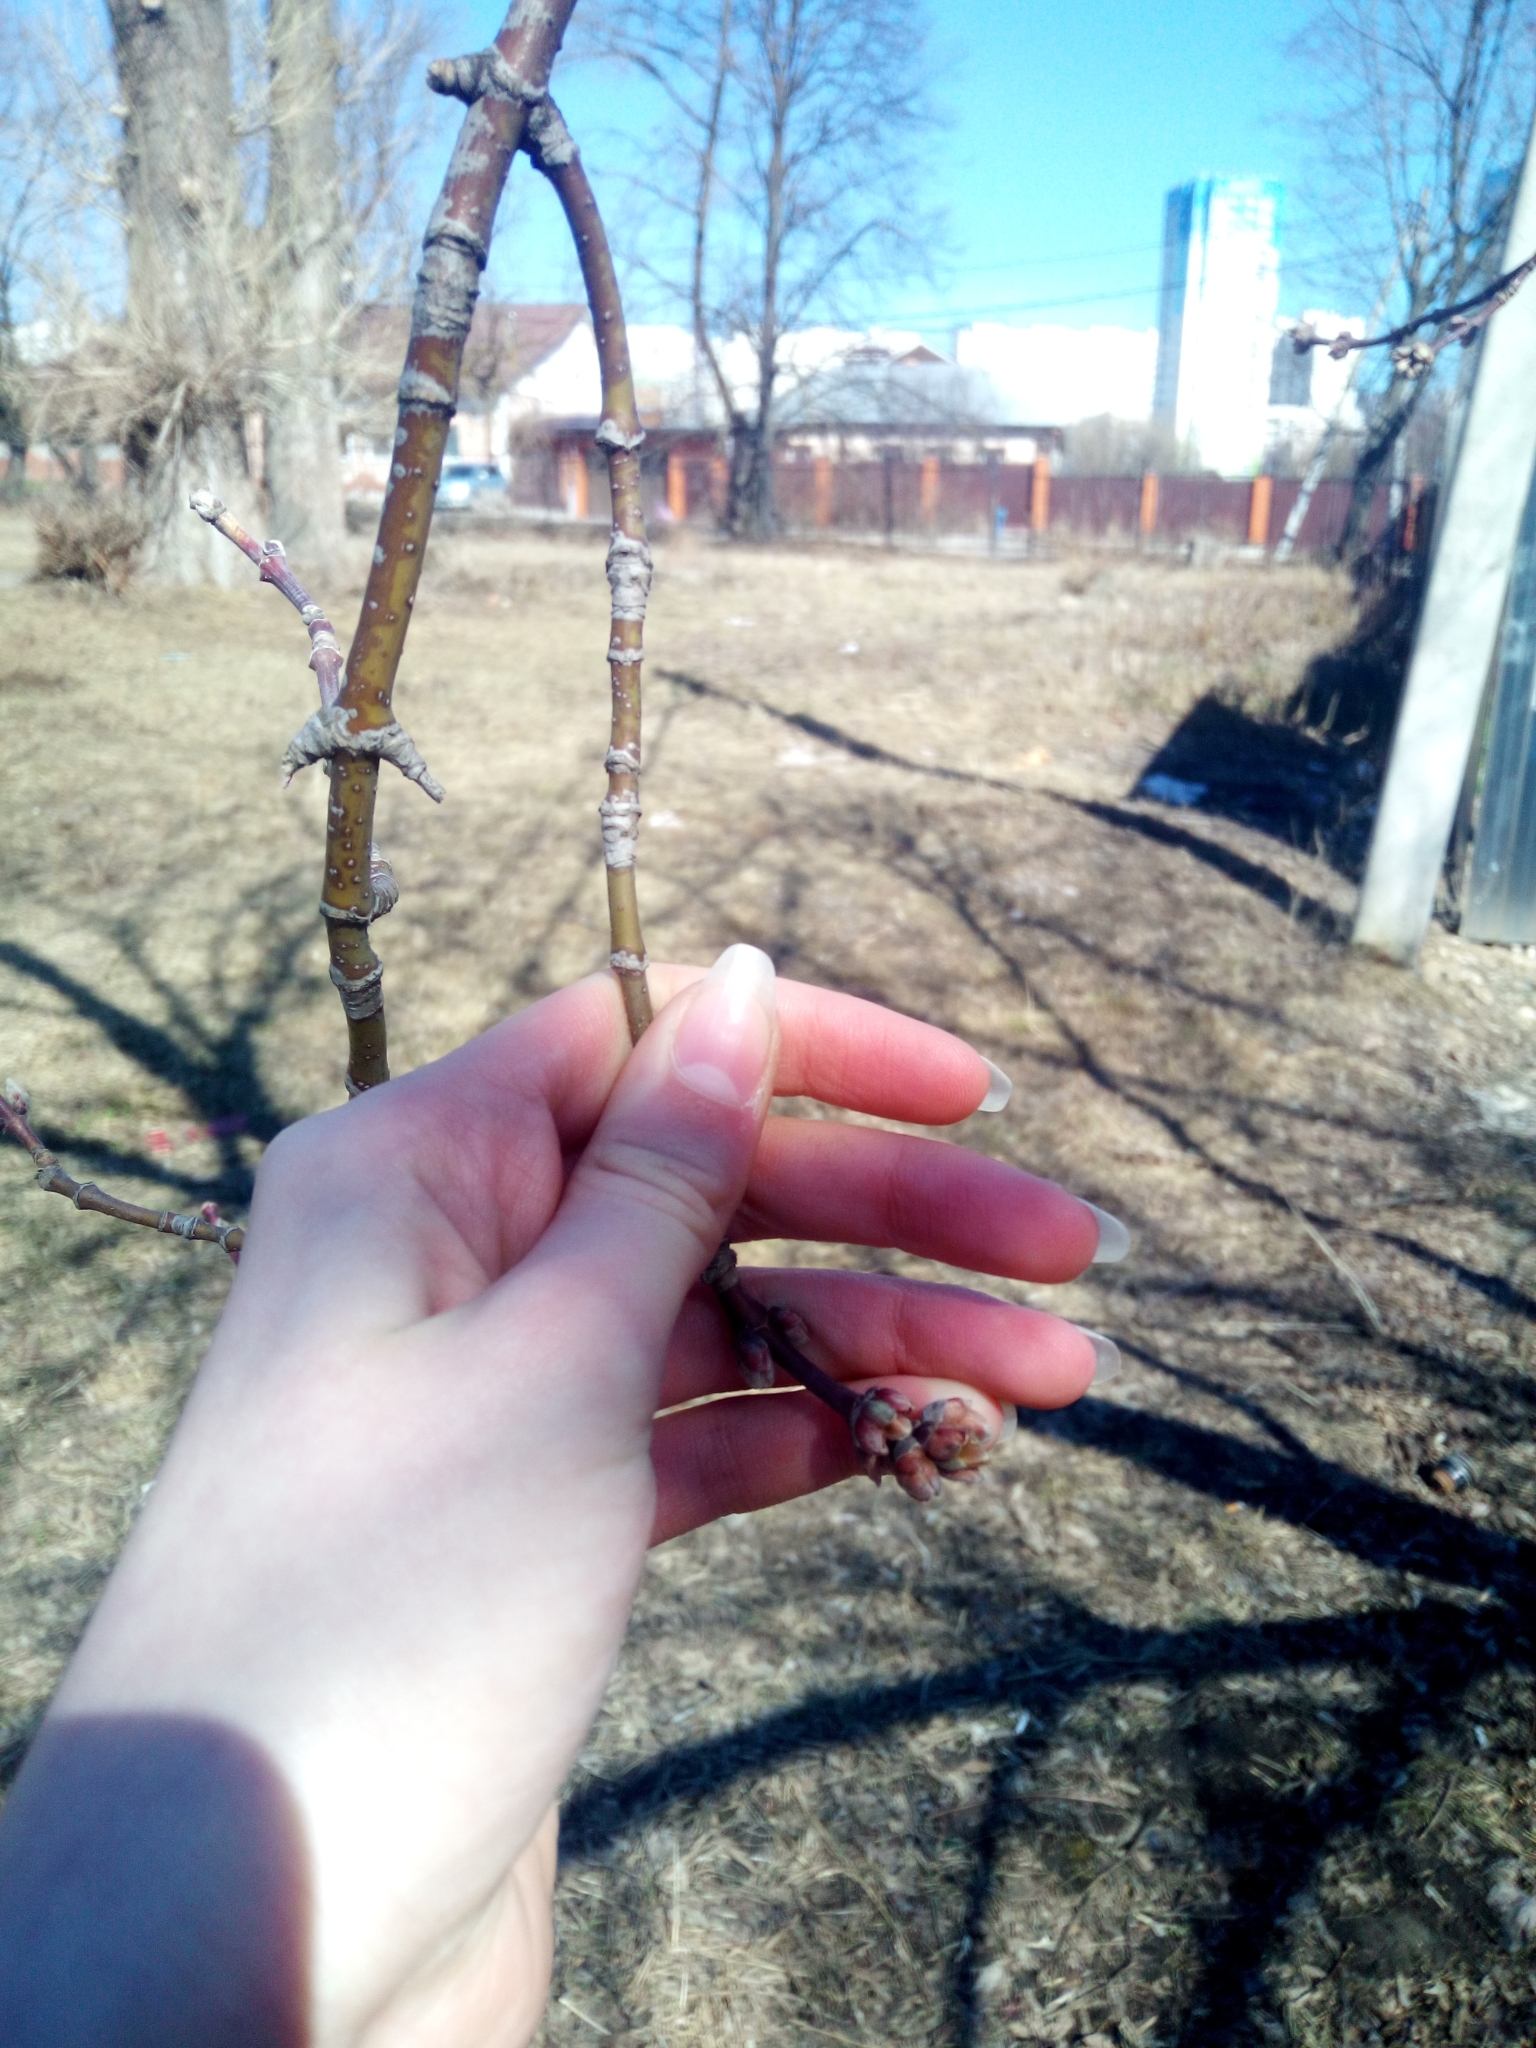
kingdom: Plantae
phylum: Tracheophyta
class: Magnoliopsida
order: Sapindales
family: Sapindaceae
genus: Acer
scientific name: Acer negundo
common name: Ashleaf maple
